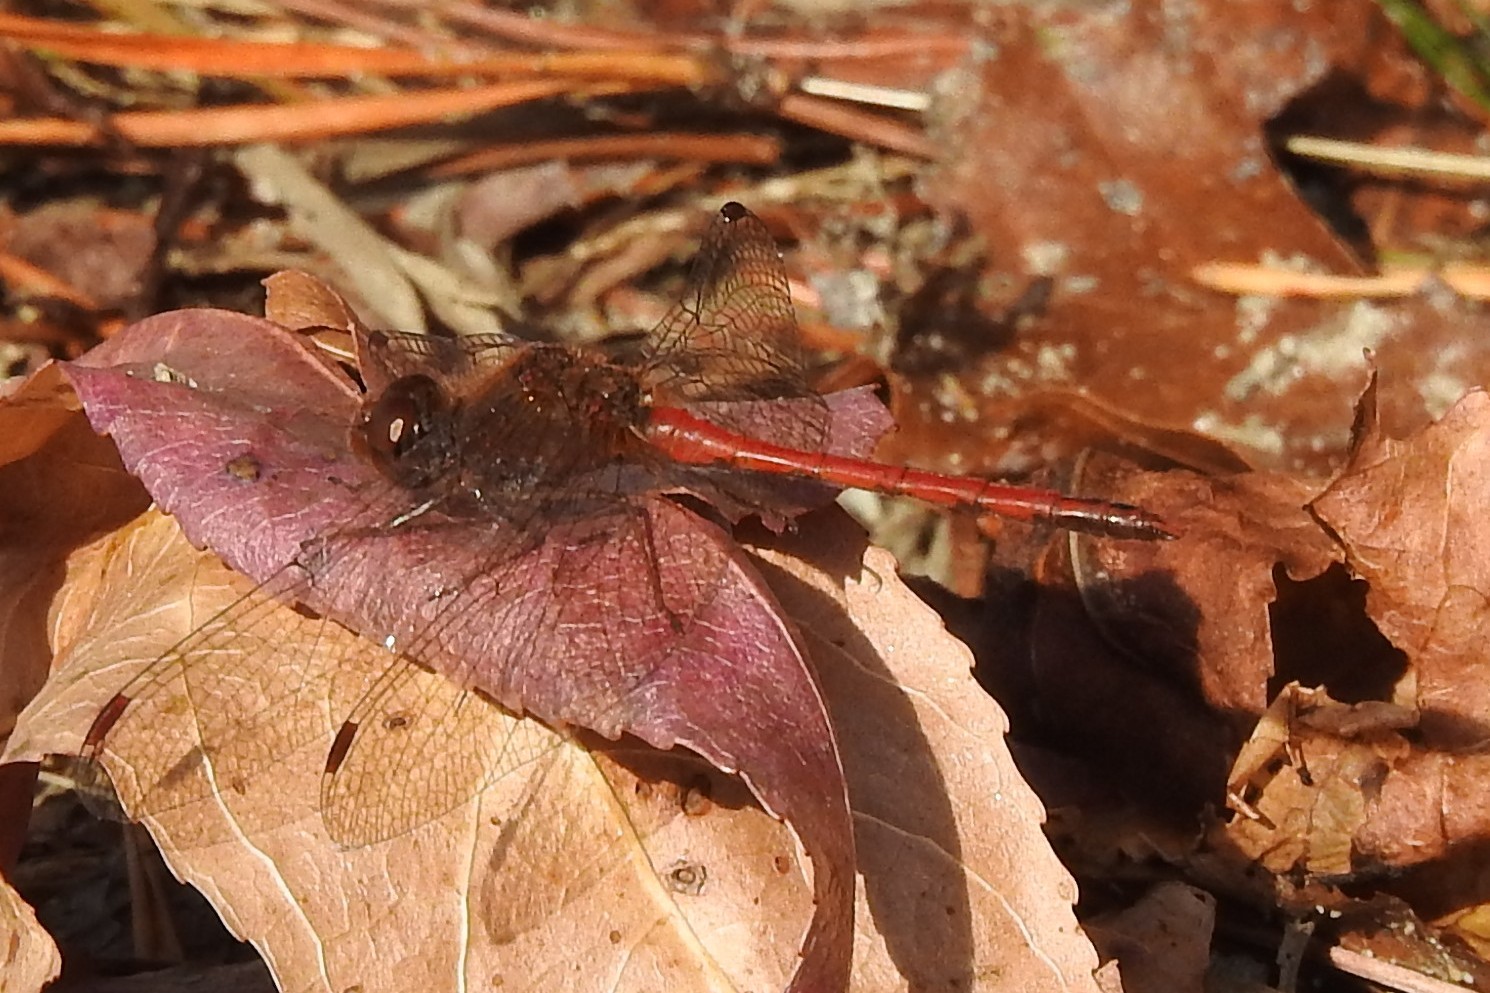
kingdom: Animalia
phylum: Arthropoda
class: Insecta
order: Odonata
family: Libellulidae
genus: Sympetrum
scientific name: Sympetrum vicinum
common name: Autumn meadowhawk
